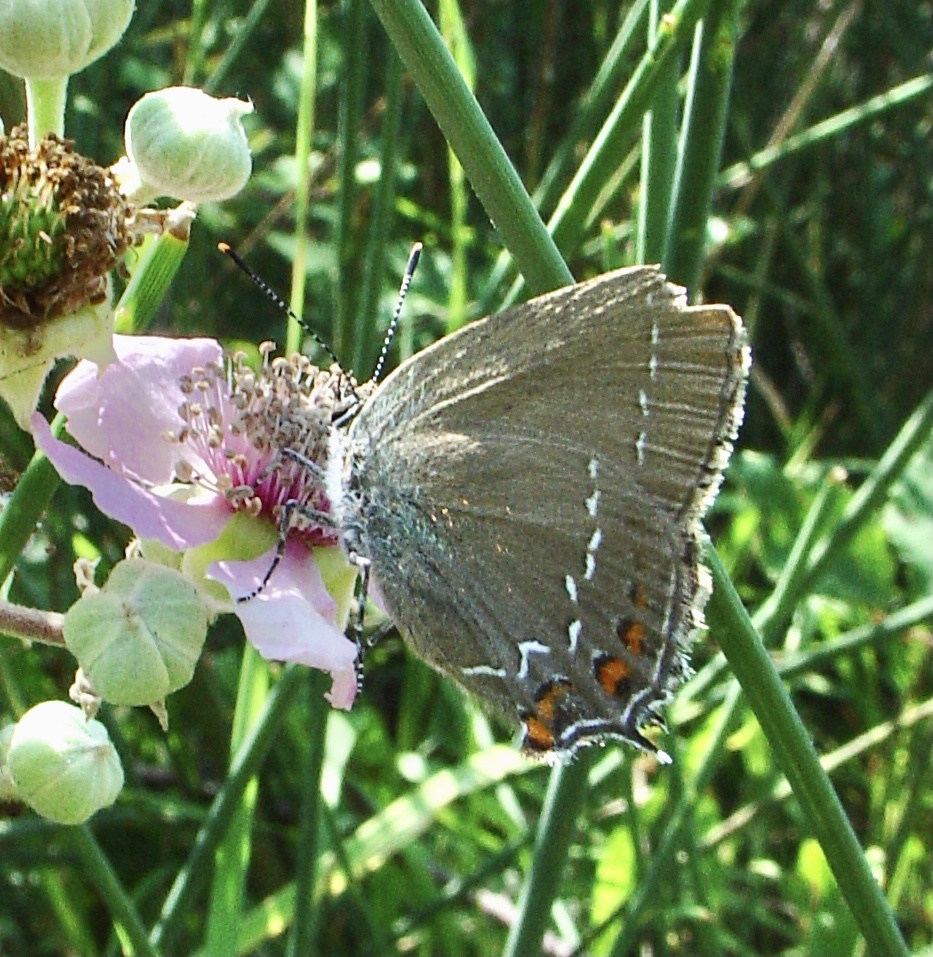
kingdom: Animalia
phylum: Arthropoda
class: Insecta
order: Lepidoptera
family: Lycaenidae
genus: Nordmannia
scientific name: Nordmannia ilicis
